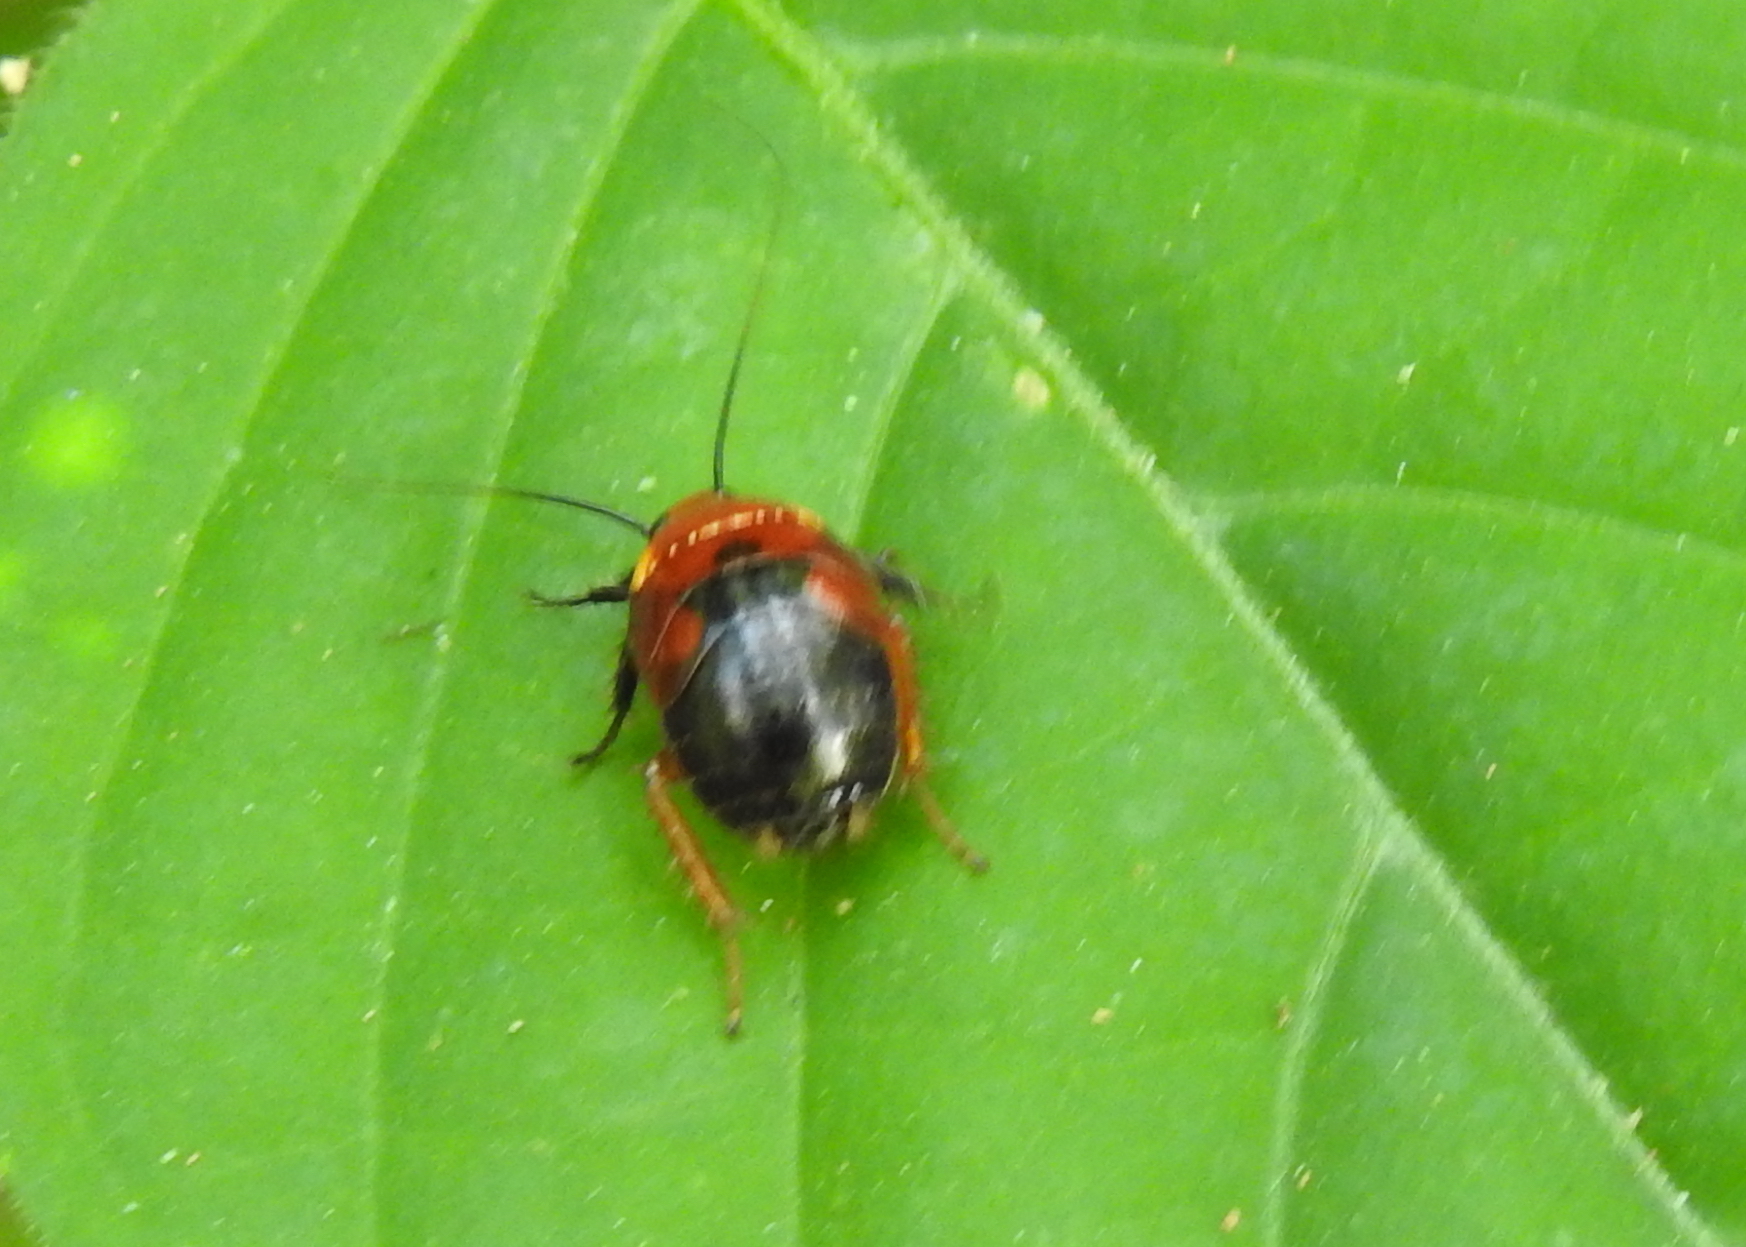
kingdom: Animalia
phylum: Arthropoda
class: Insecta
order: Blattodea
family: Ectobiidae
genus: Hemithyrsocera
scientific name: Hemithyrsocera palliata
